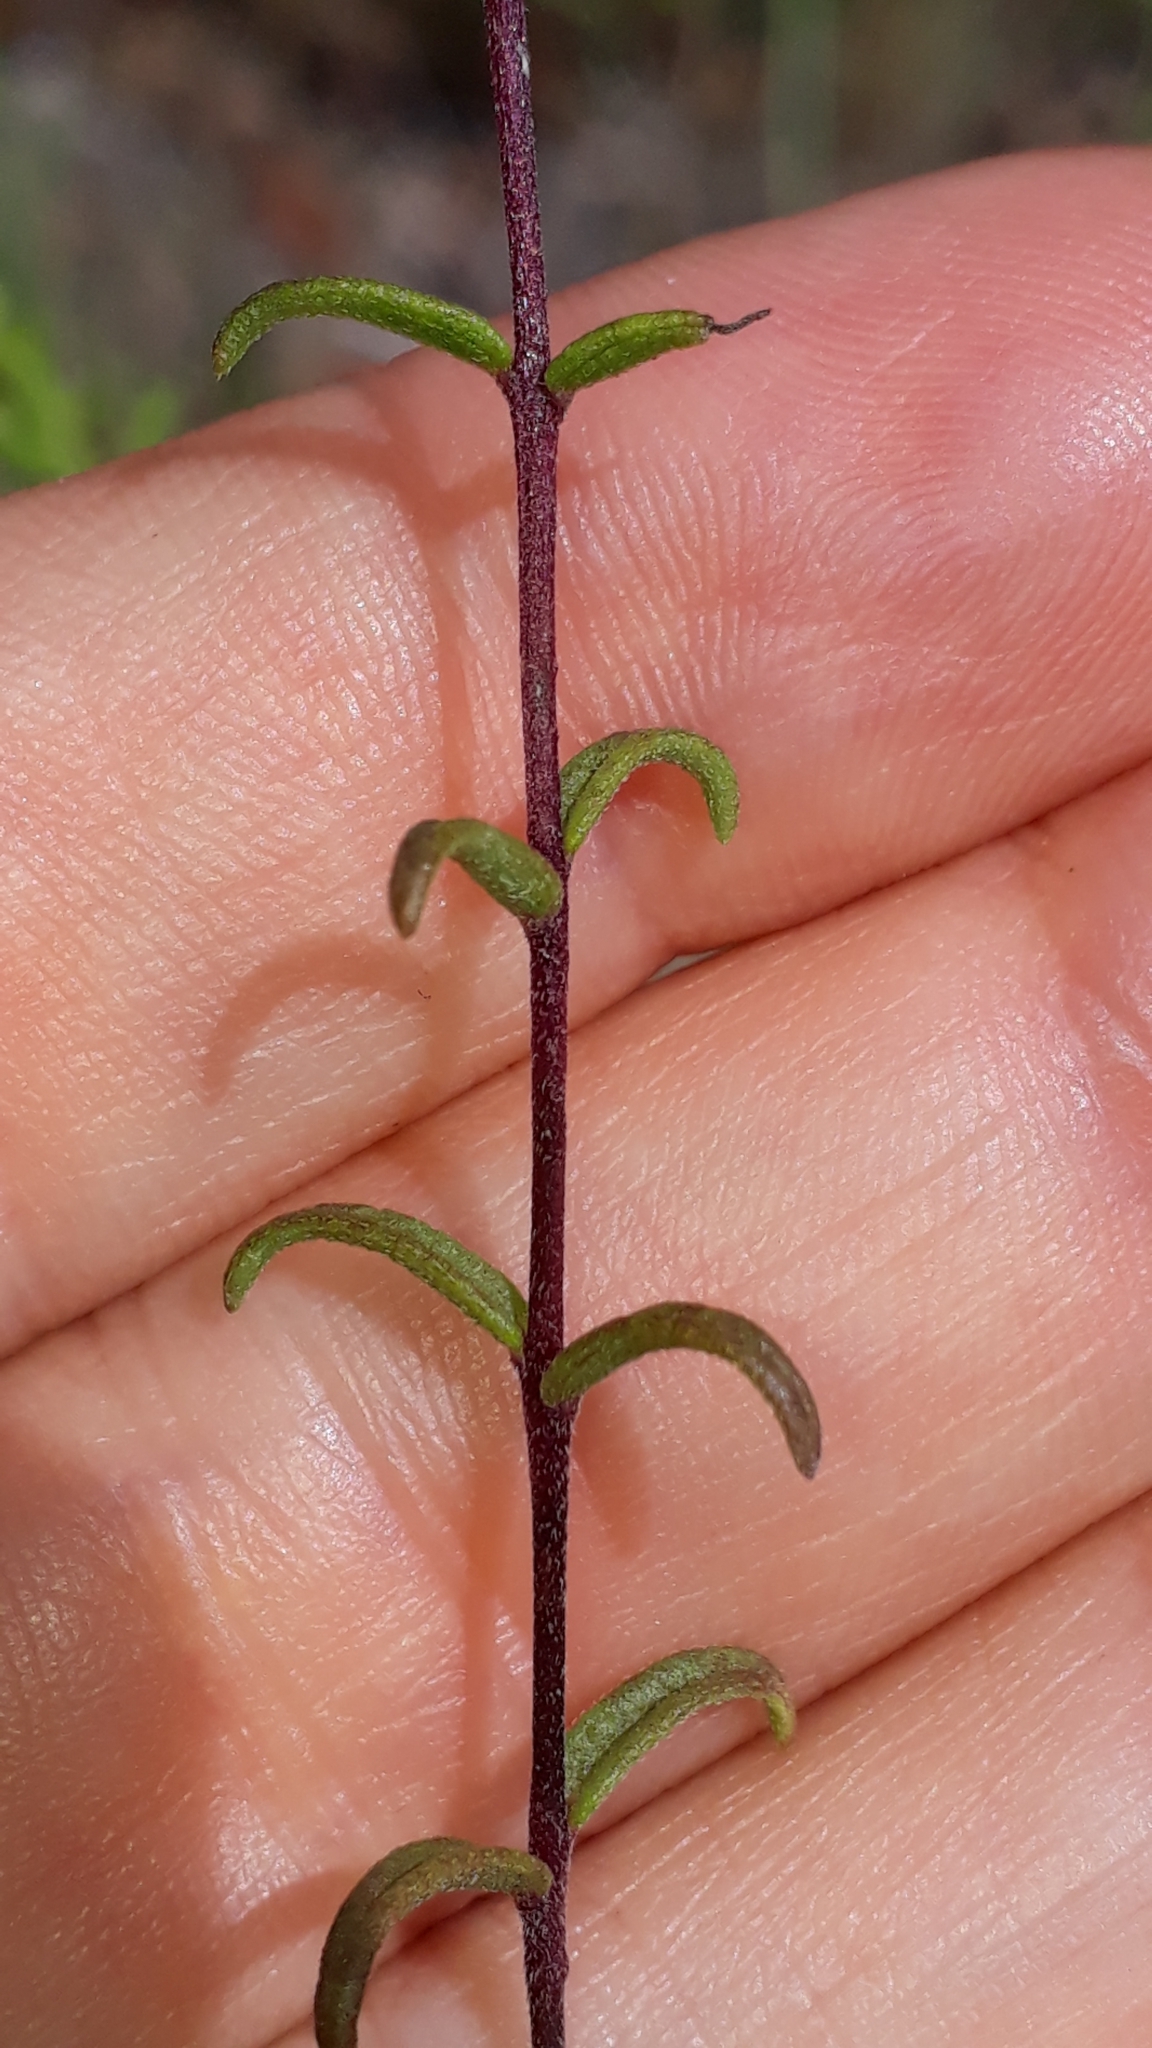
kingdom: Plantae
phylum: Tracheophyta
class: Magnoliopsida
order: Lamiales
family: Orobanchaceae
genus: Odontites
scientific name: Odontites luteus
